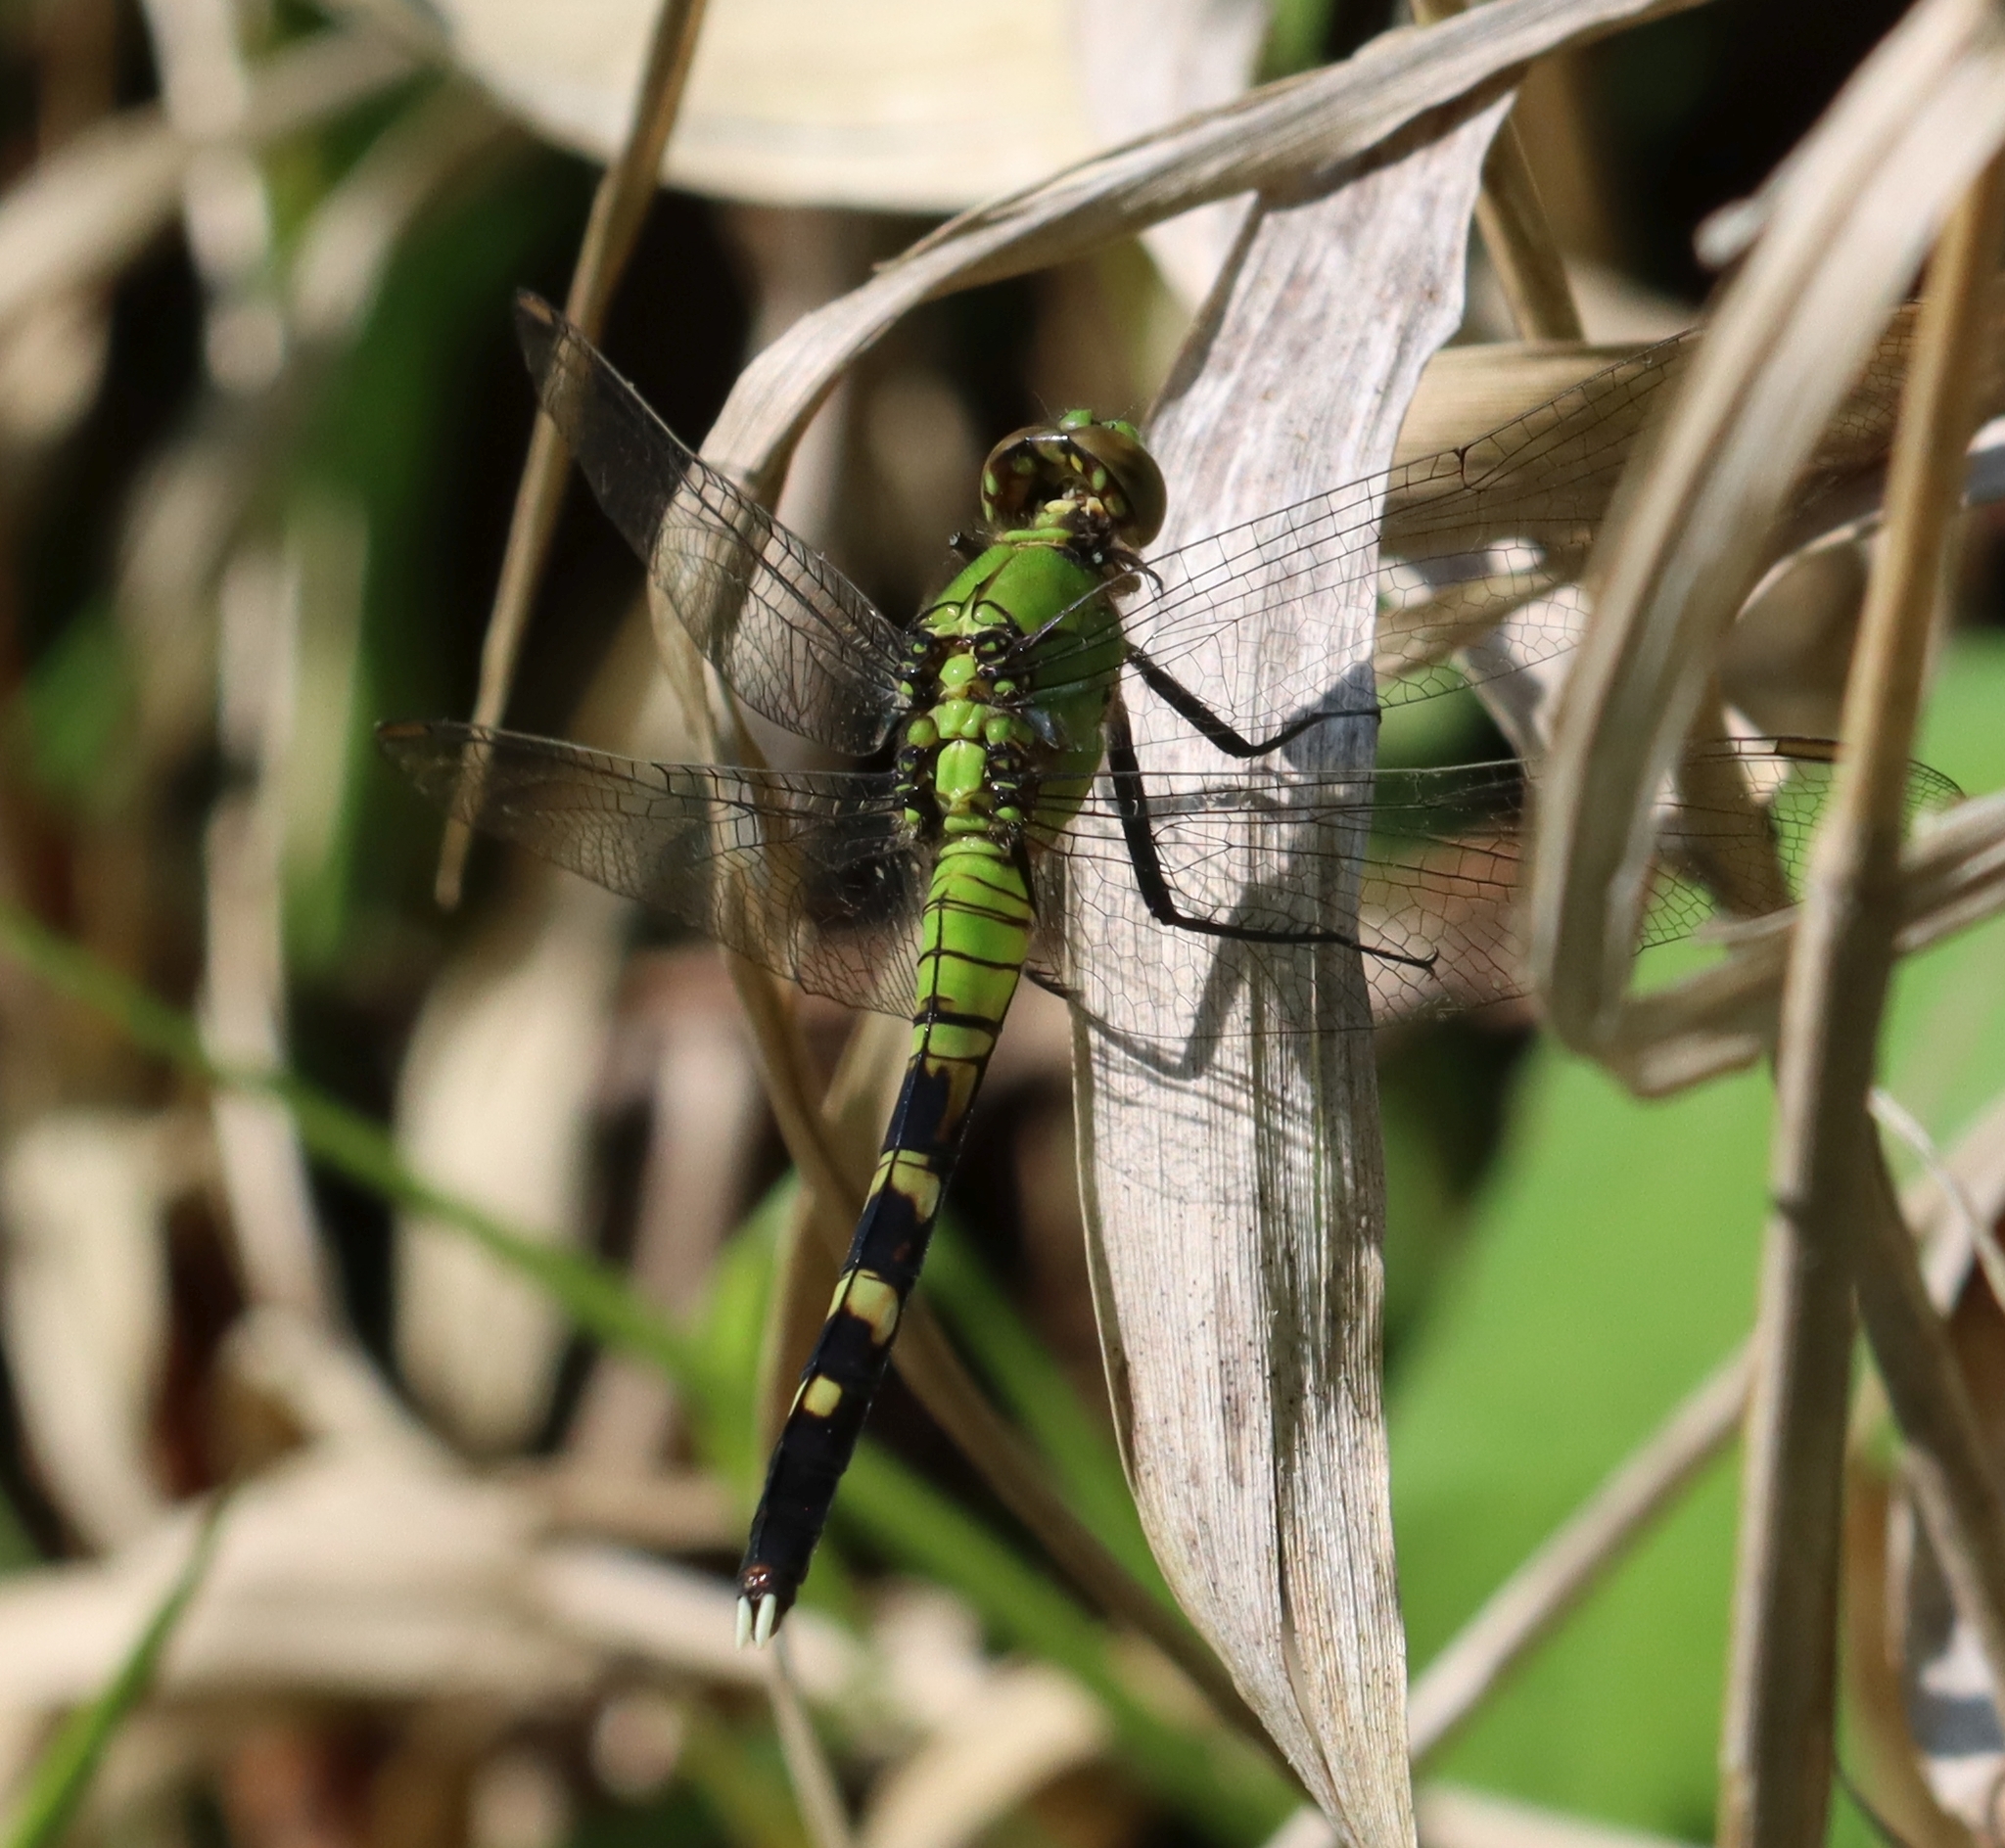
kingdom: Animalia
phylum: Arthropoda
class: Insecta
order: Odonata
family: Libellulidae
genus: Erythemis
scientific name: Erythemis simplicicollis
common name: Eastern pondhawk
